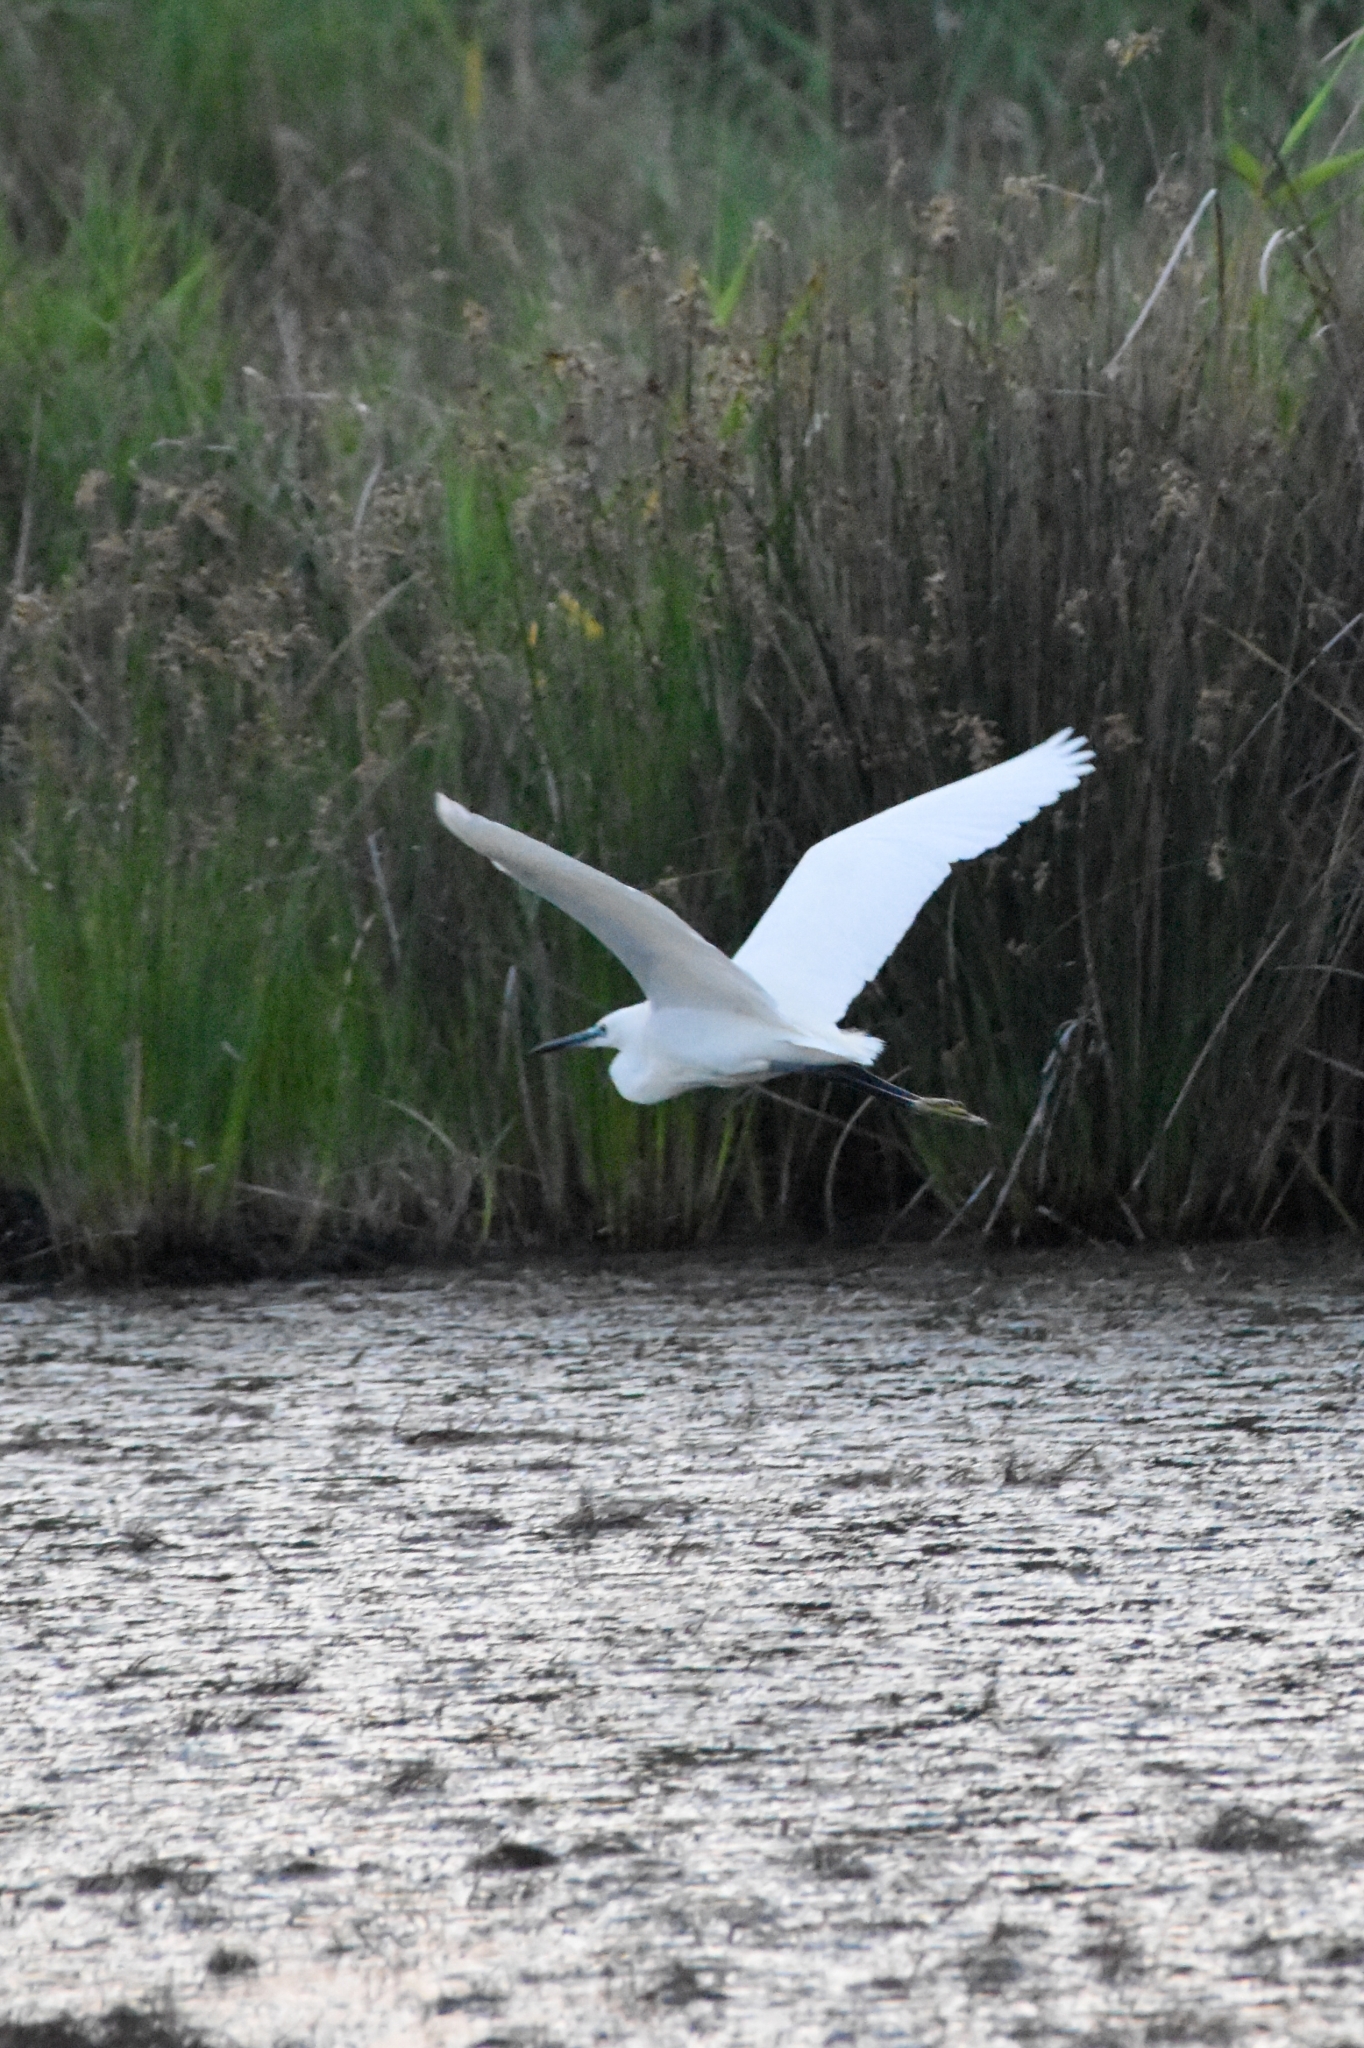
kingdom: Animalia
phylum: Chordata
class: Aves
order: Pelecaniformes
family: Ardeidae
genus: Egretta
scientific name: Egretta garzetta
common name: Little egret
